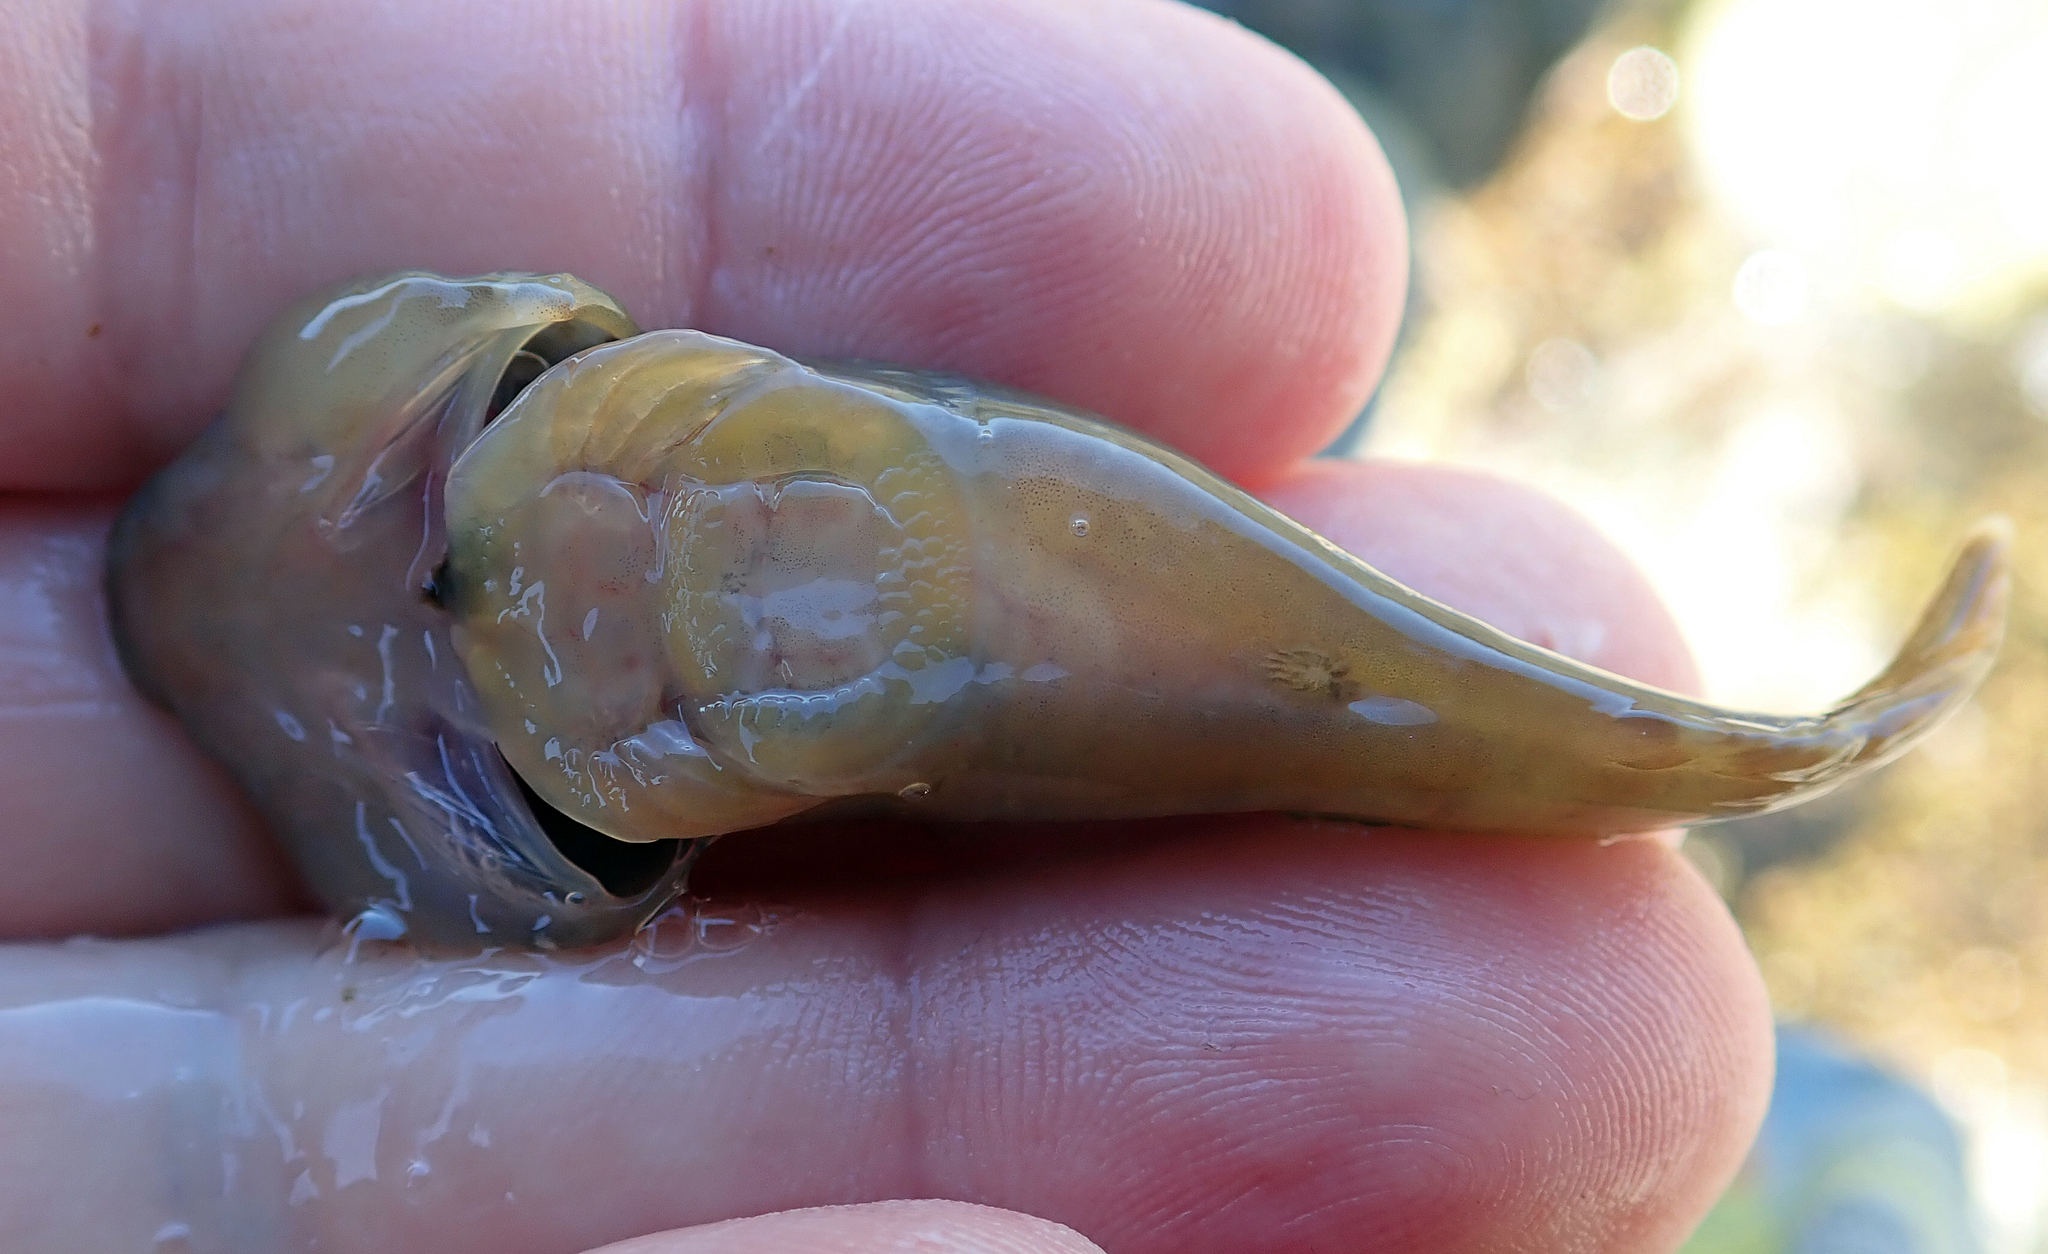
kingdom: Animalia
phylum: Chordata
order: Gobiesociformes
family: Gobiesocidae
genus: Trachelochismus
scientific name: Trachelochismus pinnulatus
